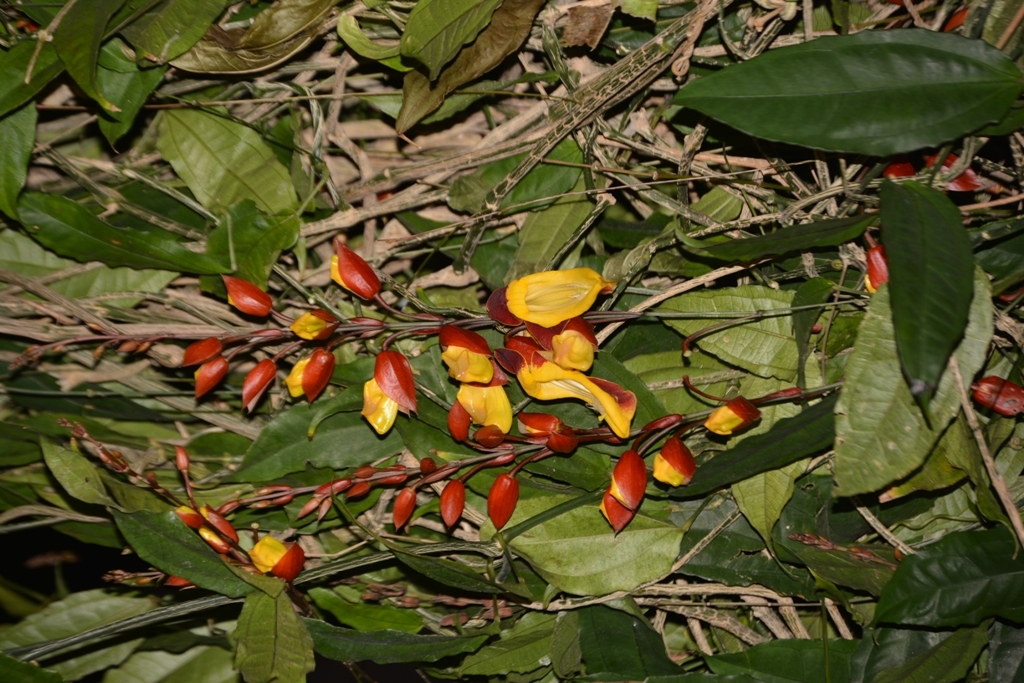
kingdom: Plantae
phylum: Tracheophyta
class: Magnoliopsida
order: Lamiales
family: Acanthaceae
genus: Thunbergia
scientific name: Thunbergia mysorensis
